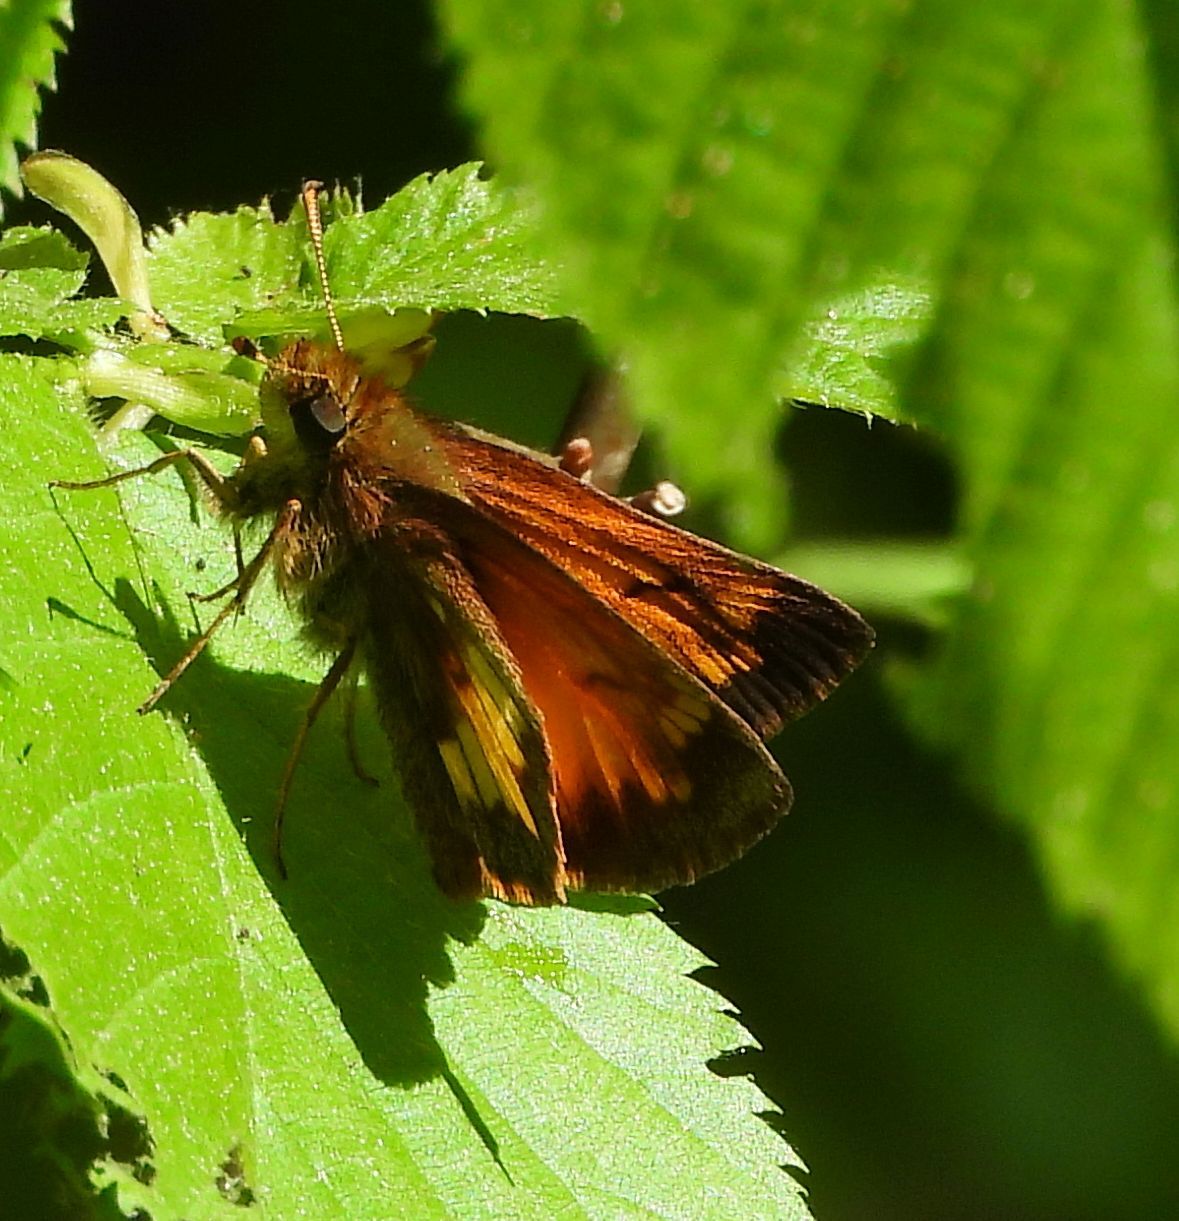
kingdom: Animalia
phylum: Arthropoda
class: Insecta
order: Lepidoptera
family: Hesperiidae
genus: Lon
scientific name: Lon hobomok
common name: Hobomok skipper
